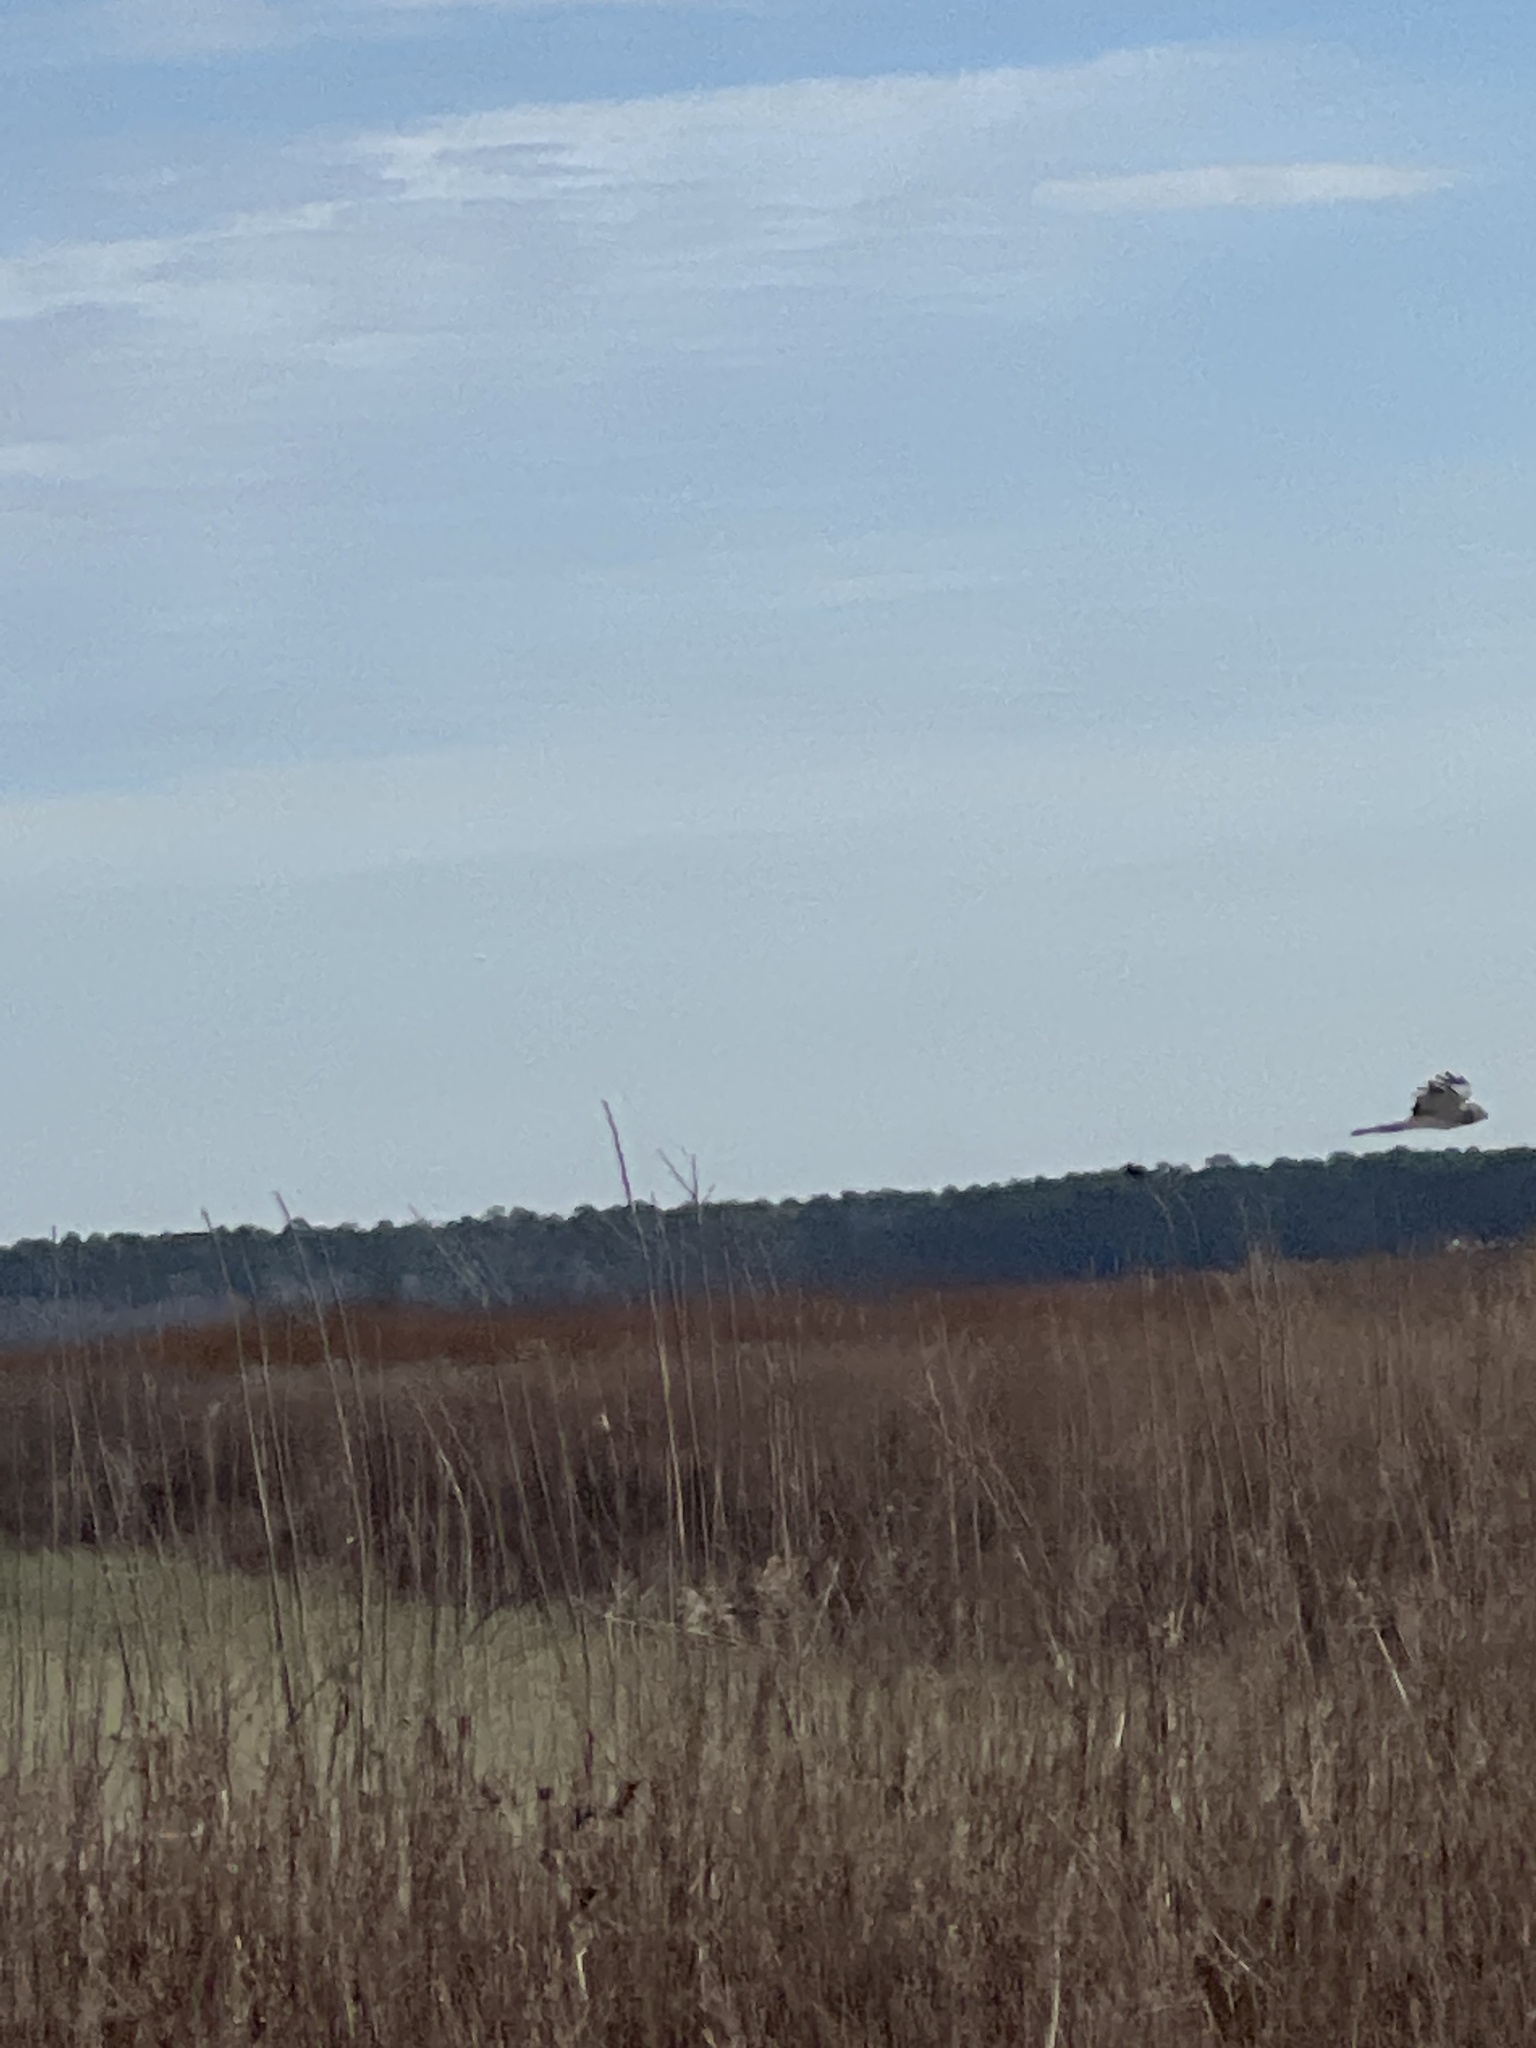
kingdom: Animalia
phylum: Chordata
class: Aves
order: Accipitriformes
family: Accipitridae
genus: Circus
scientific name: Circus cyaneus
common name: Hen harrier
